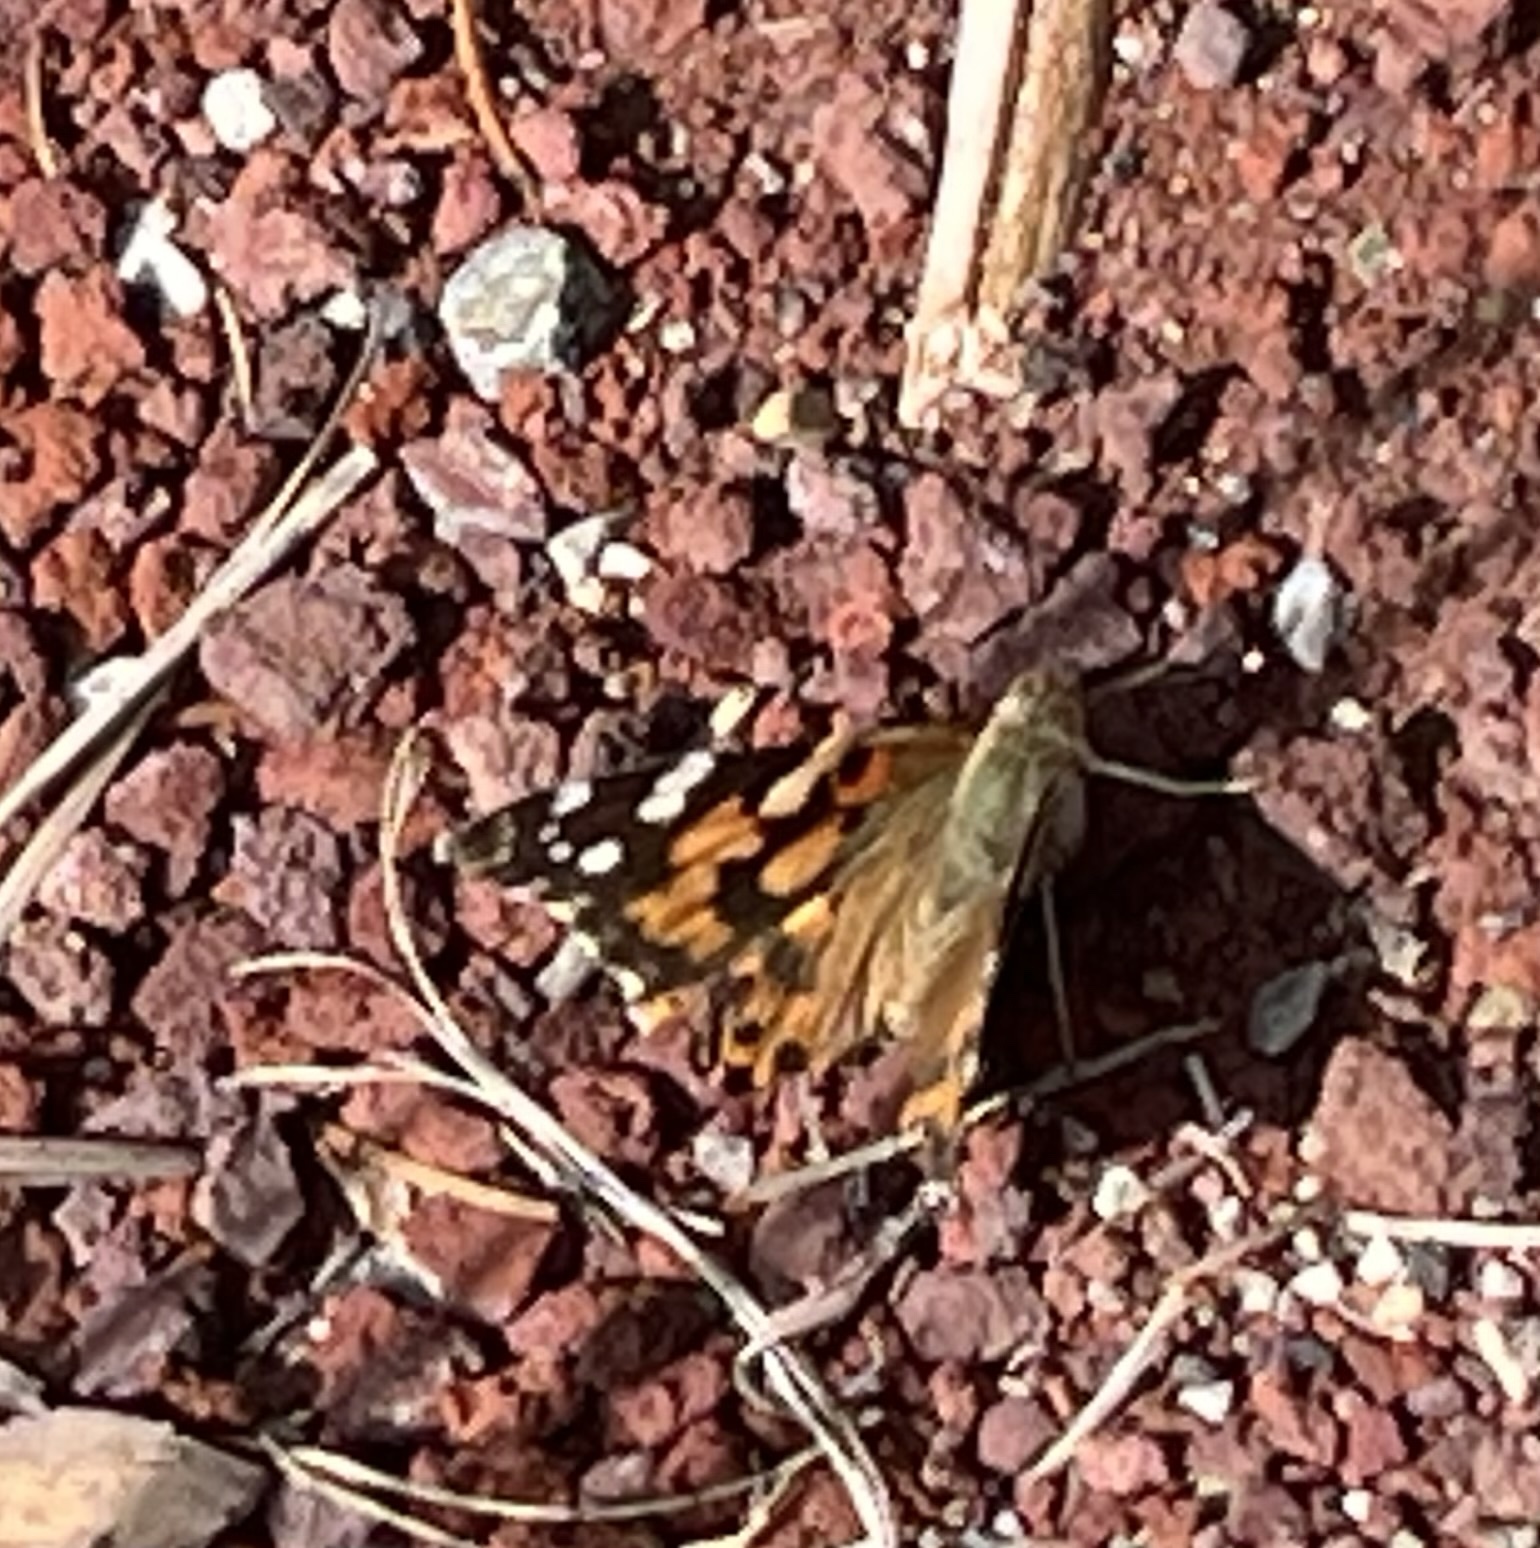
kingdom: Animalia
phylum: Arthropoda
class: Insecta
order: Lepidoptera
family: Nymphalidae
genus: Vanessa
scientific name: Vanessa cardui
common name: Painted lady
